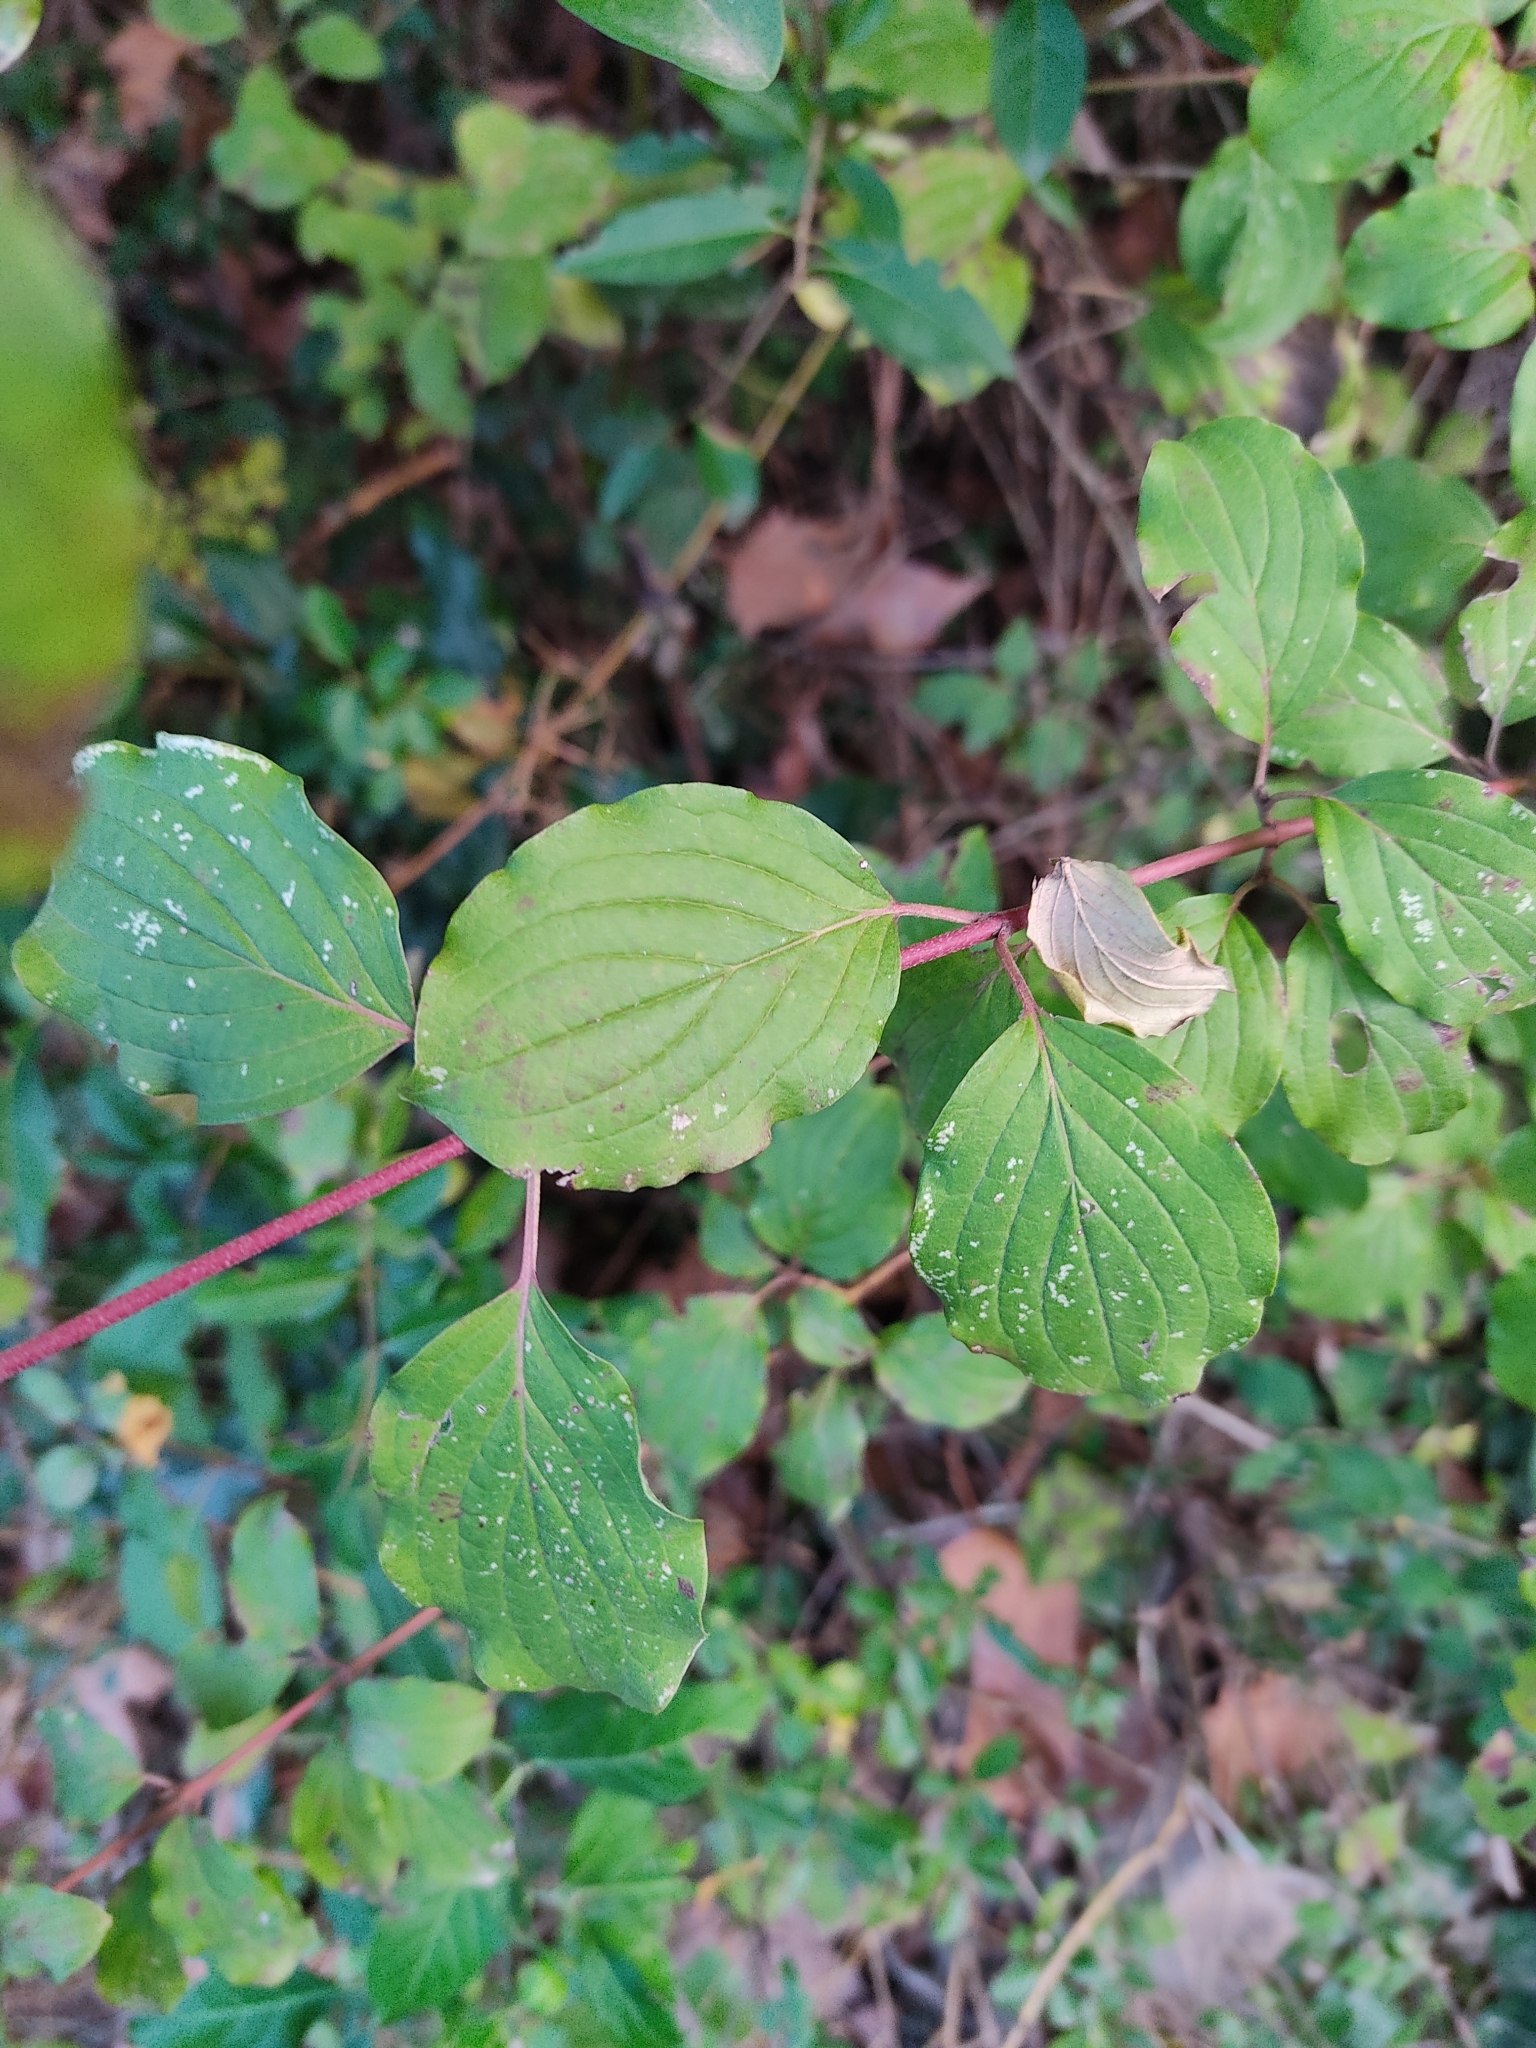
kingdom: Plantae
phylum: Tracheophyta
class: Magnoliopsida
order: Cornales
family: Cornaceae
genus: Cornus
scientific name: Cornus sanguinea
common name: Dogwood
